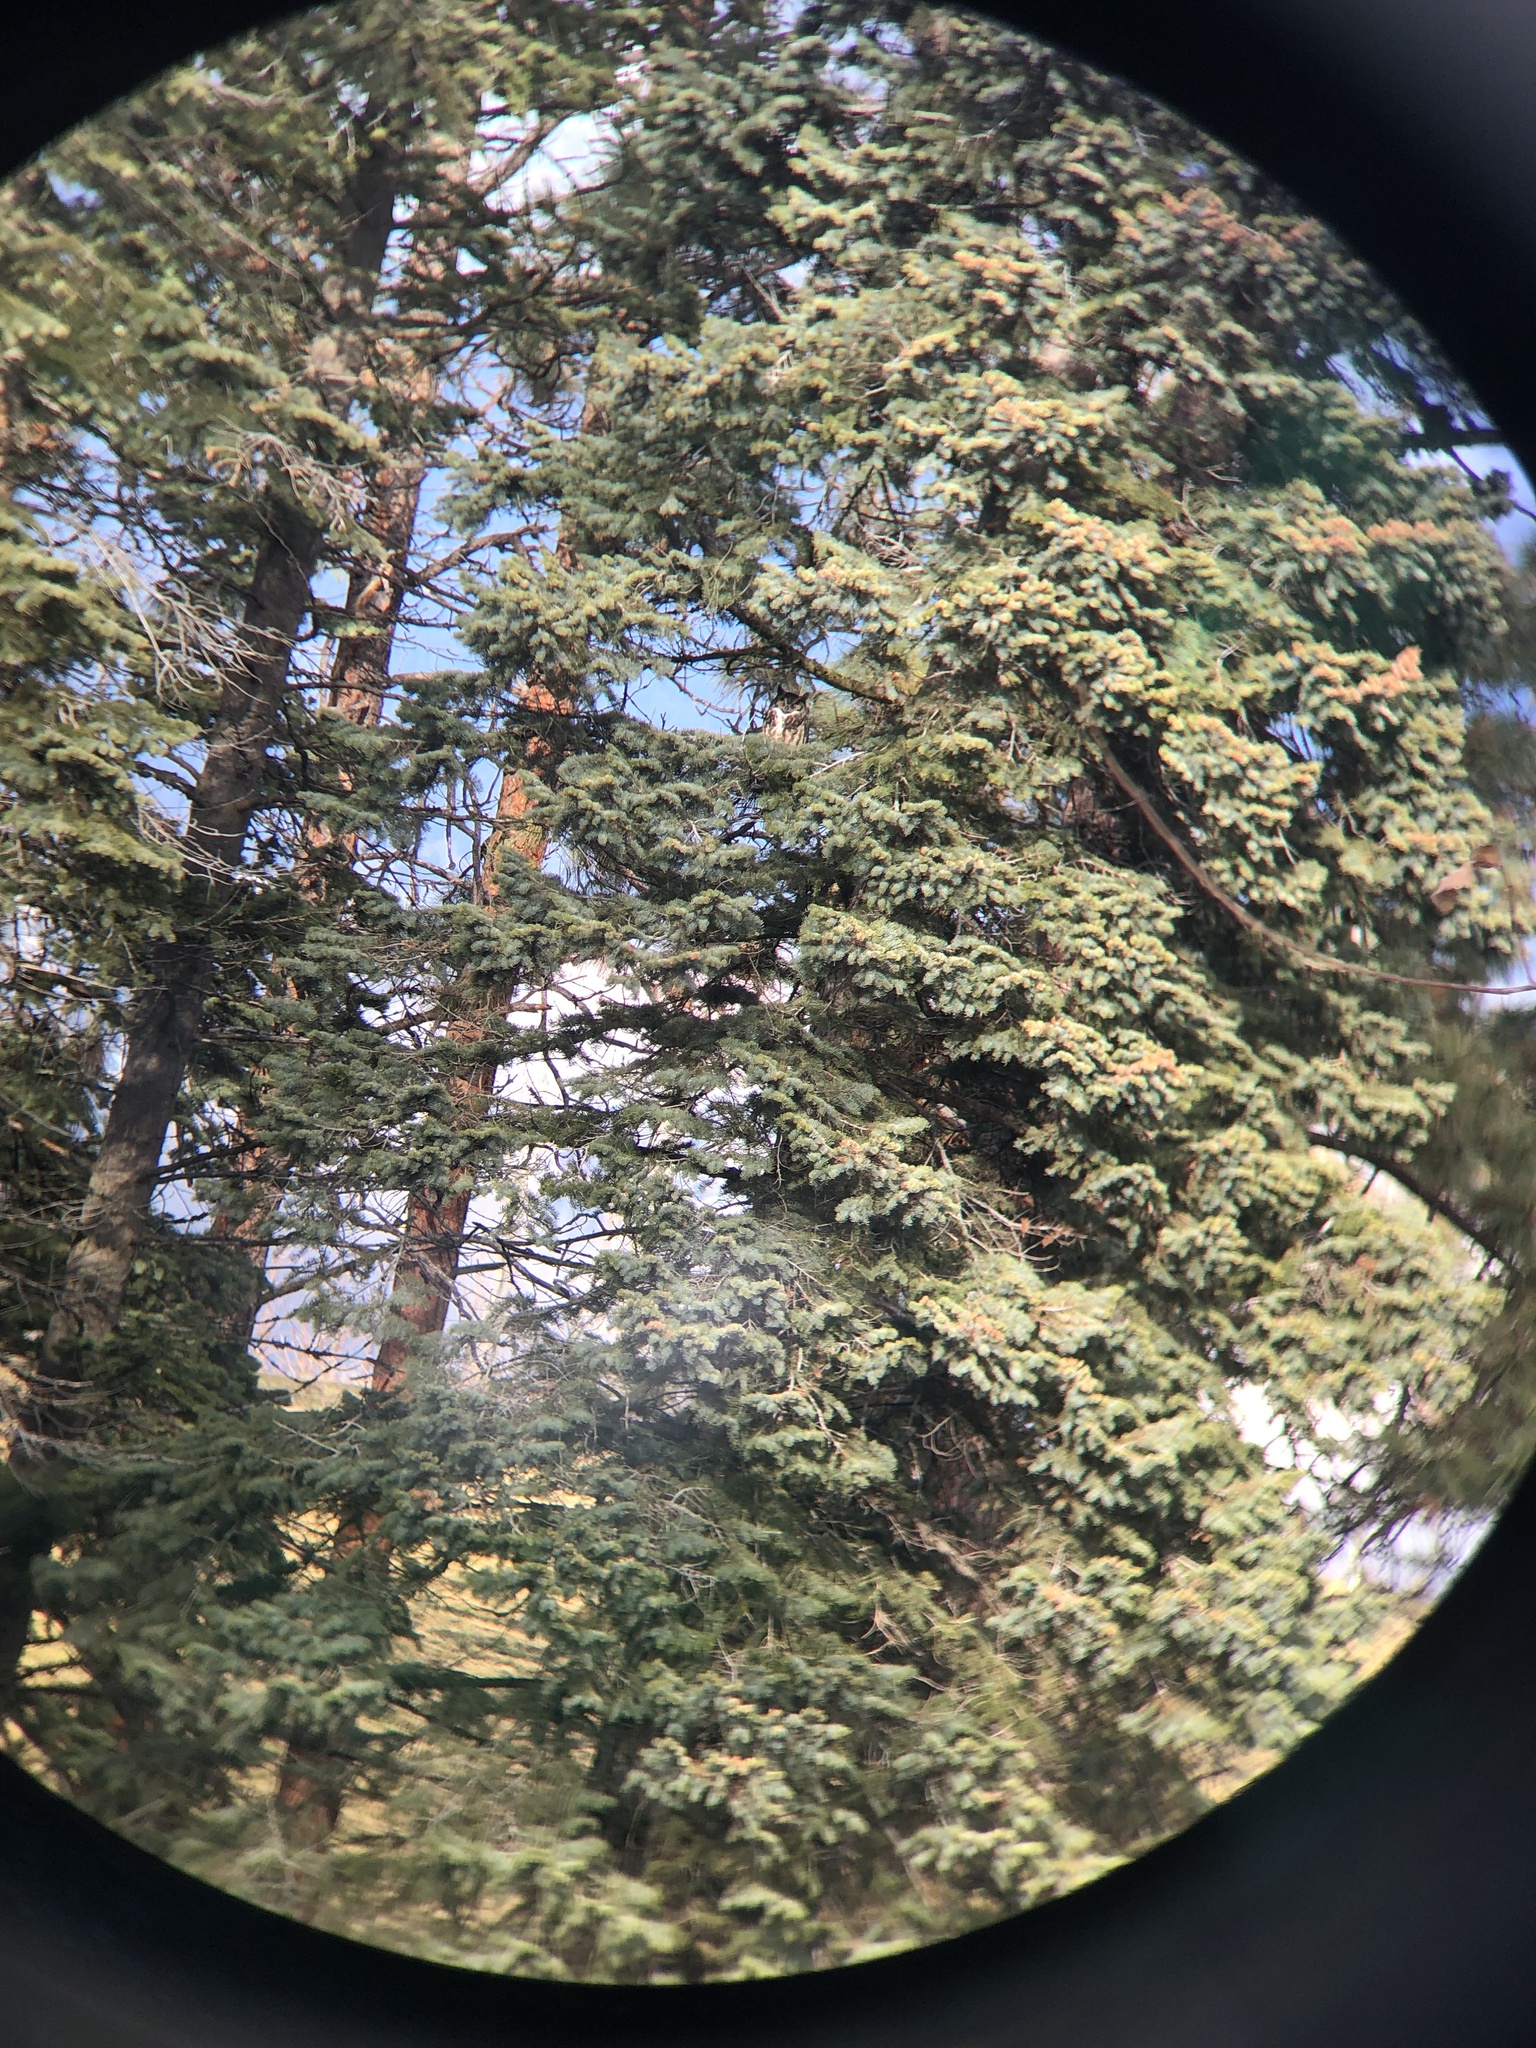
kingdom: Animalia
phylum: Chordata
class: Aves
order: Strigiformes
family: Strigidae
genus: Bubo
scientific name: Bubo virginianus
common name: Great horned owl
